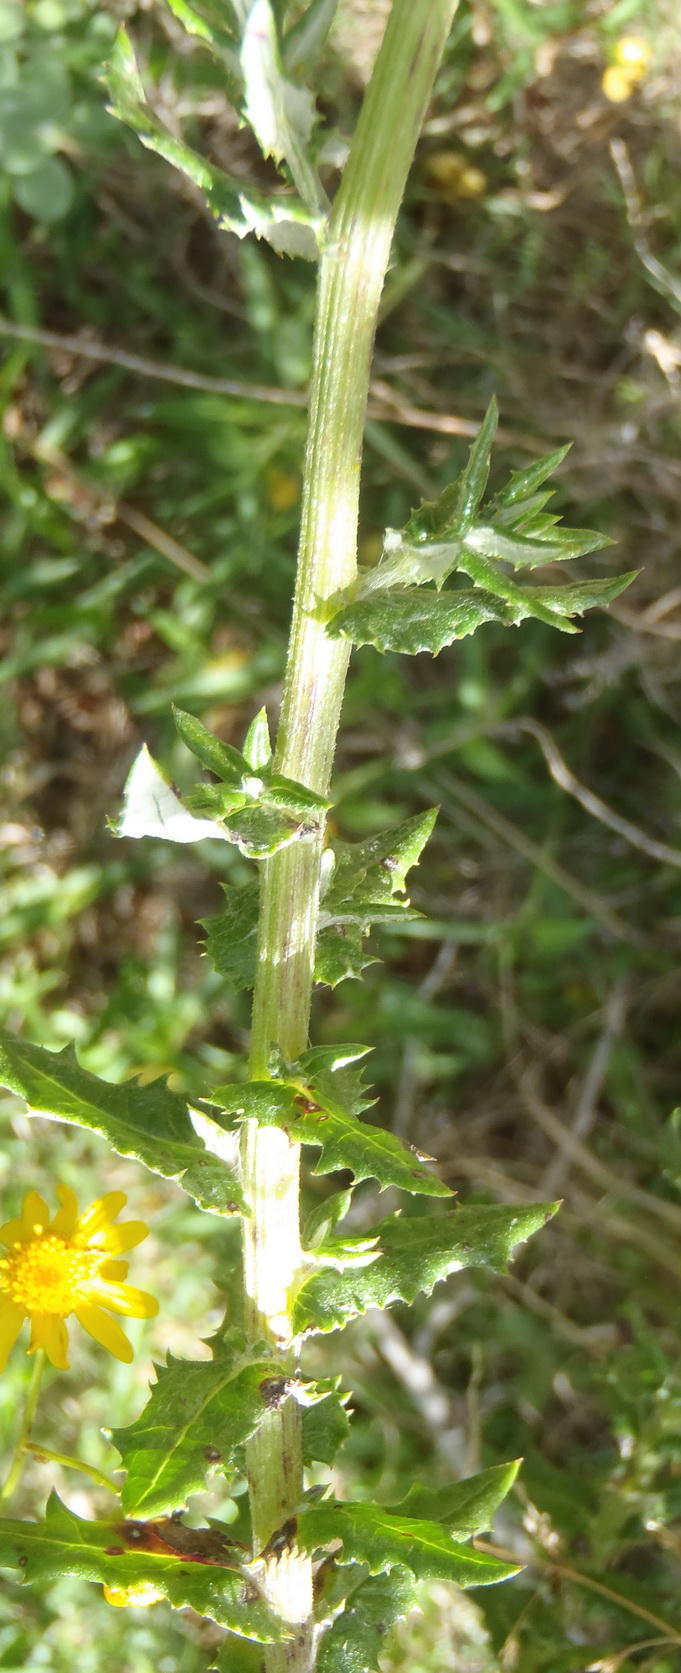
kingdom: Plantae
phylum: Tracheophyta
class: Magnoliopsida
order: Asterales
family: Asteraceae
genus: Senecio
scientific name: Senecio ilicifolius
